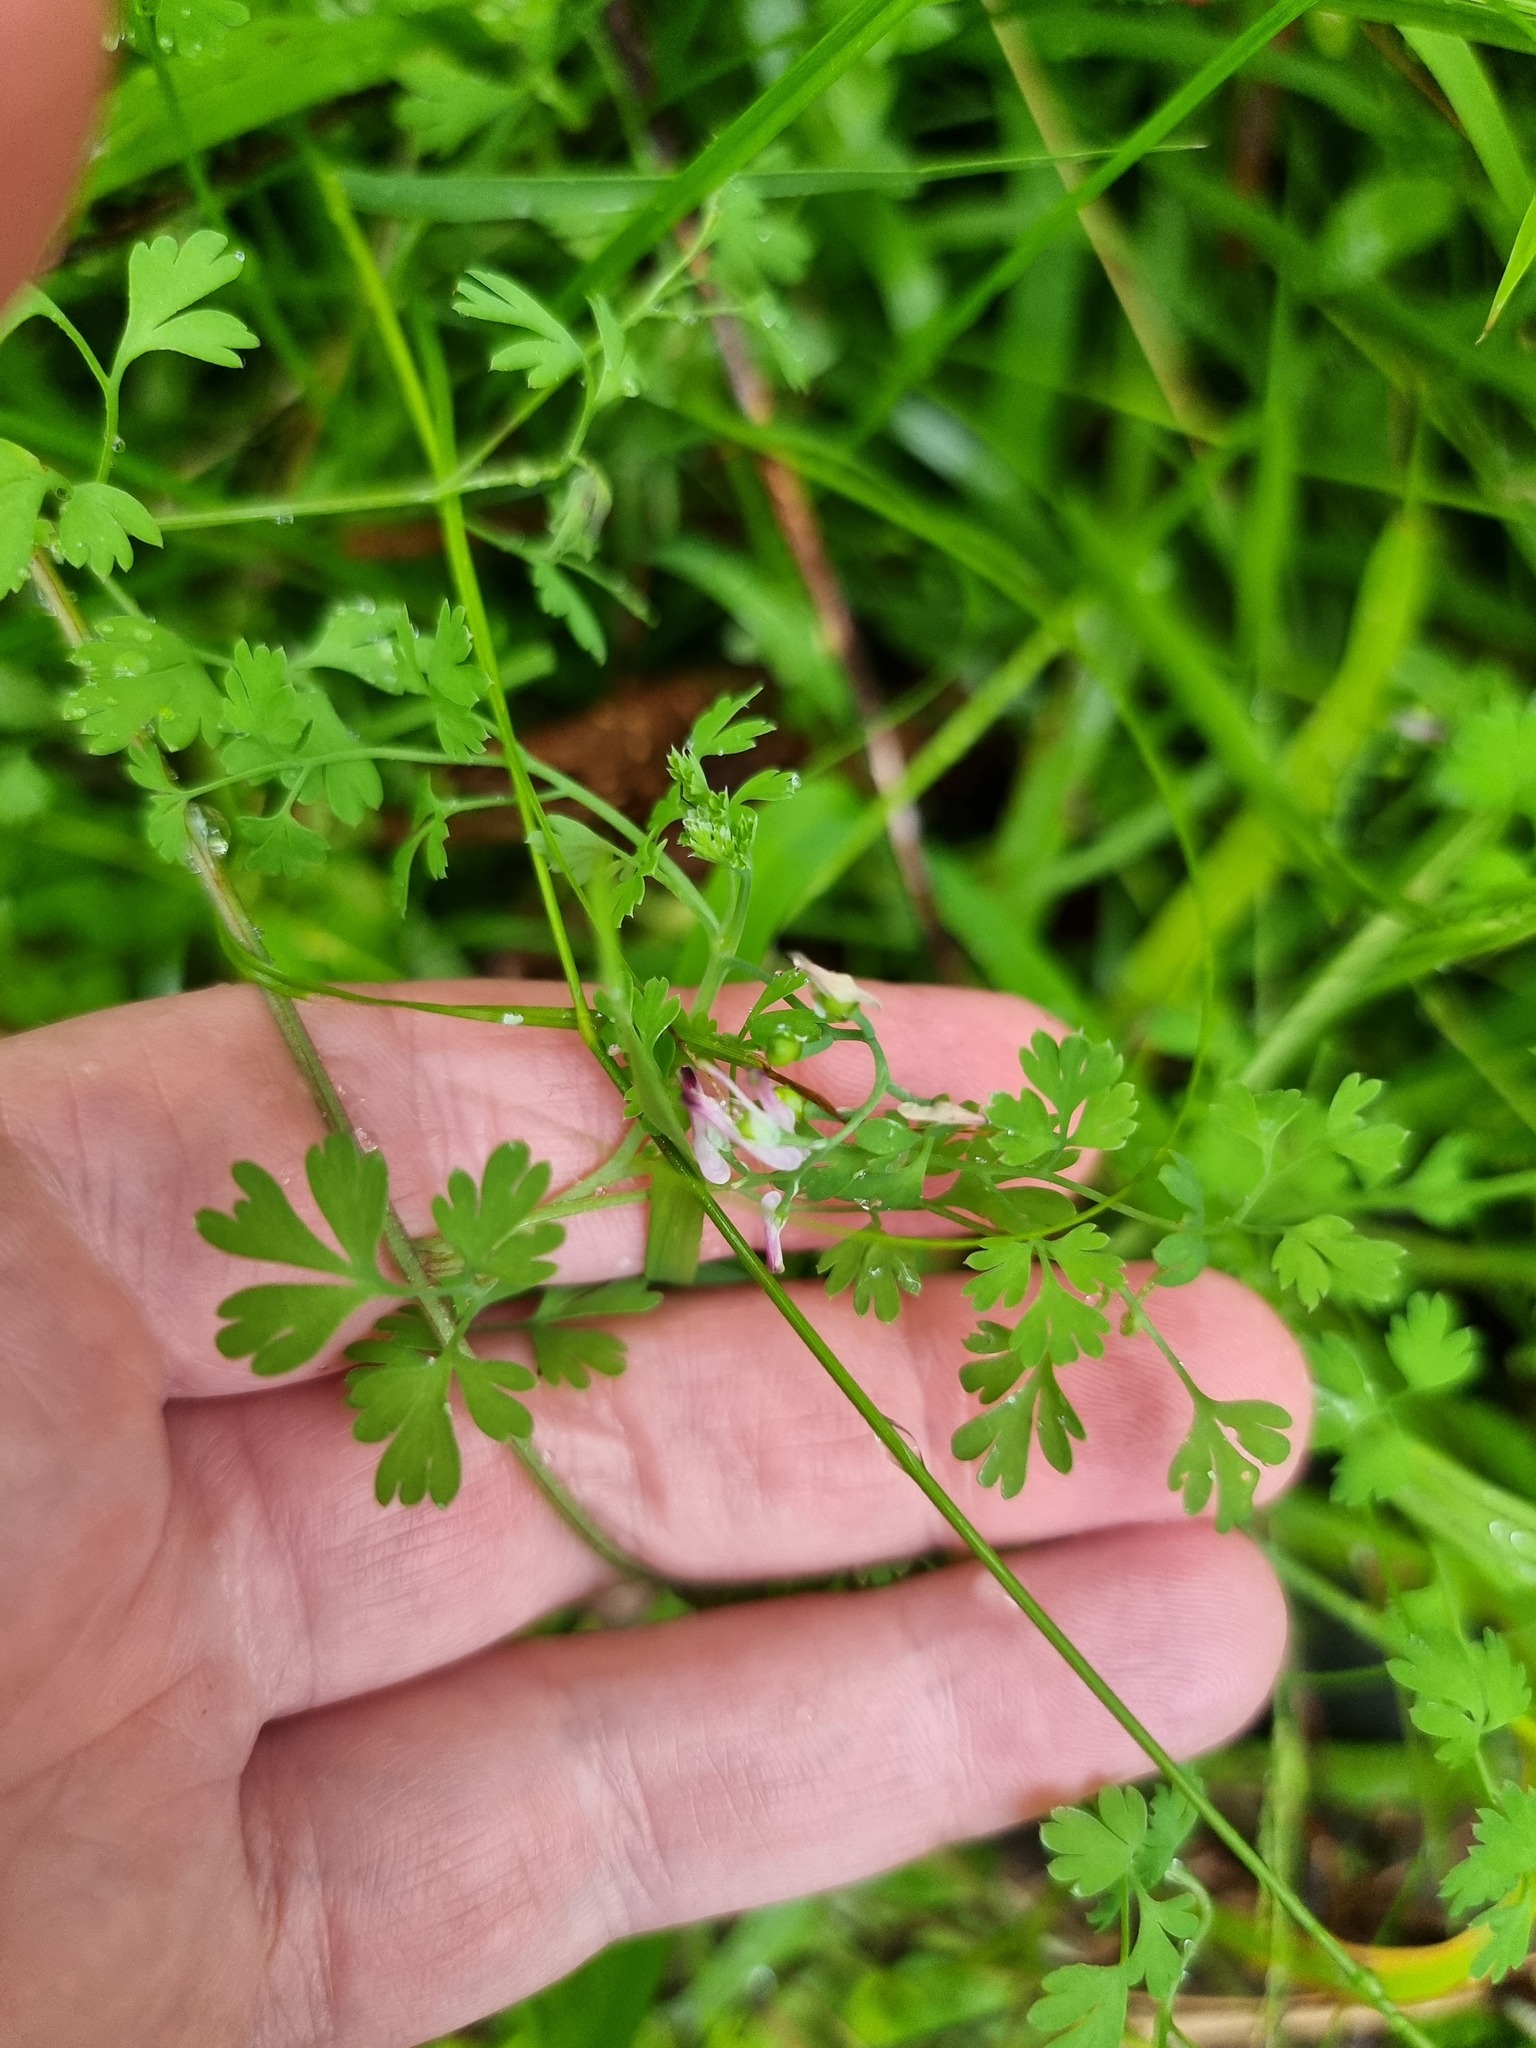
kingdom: Plantae
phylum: Tracheophyta
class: Magnoliopsida
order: Ranunculales
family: Papaveraceae
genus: Fumaria
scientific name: Fumaria muralis
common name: Common ramping-fumitory
